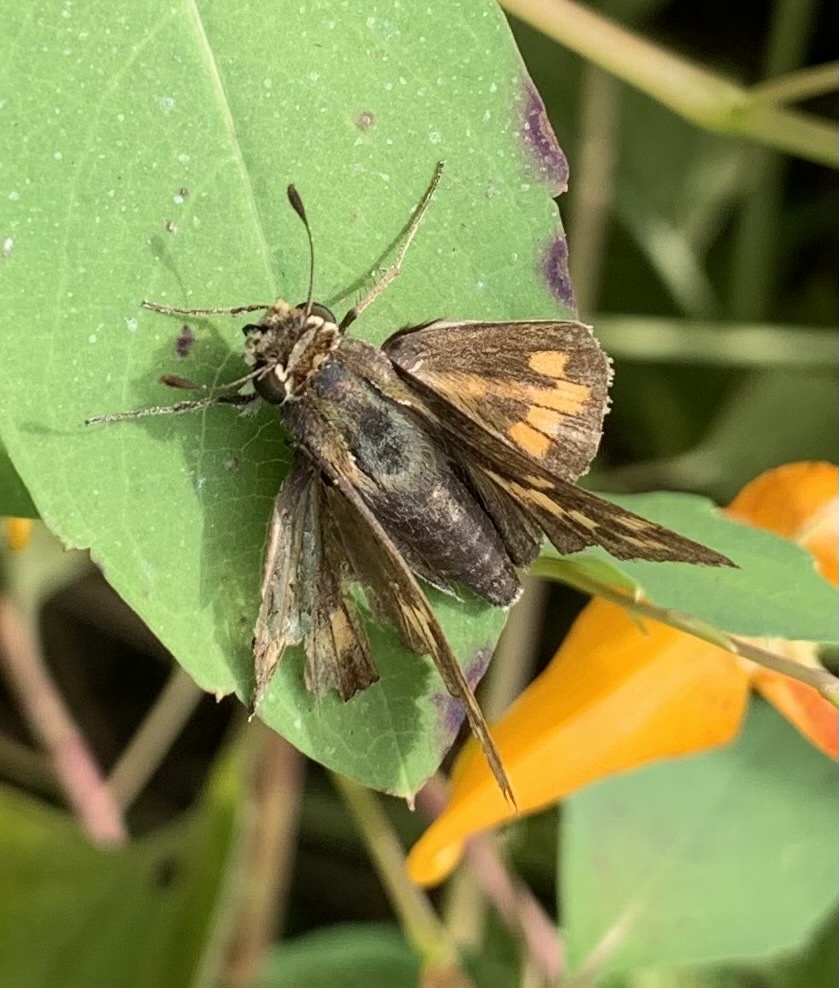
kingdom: Animalia
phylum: Arthropoda
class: Insecta
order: Lepidoptera
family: Hesperiidae
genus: Hylephila
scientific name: Hylephila phyleus
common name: Fiery skipper
